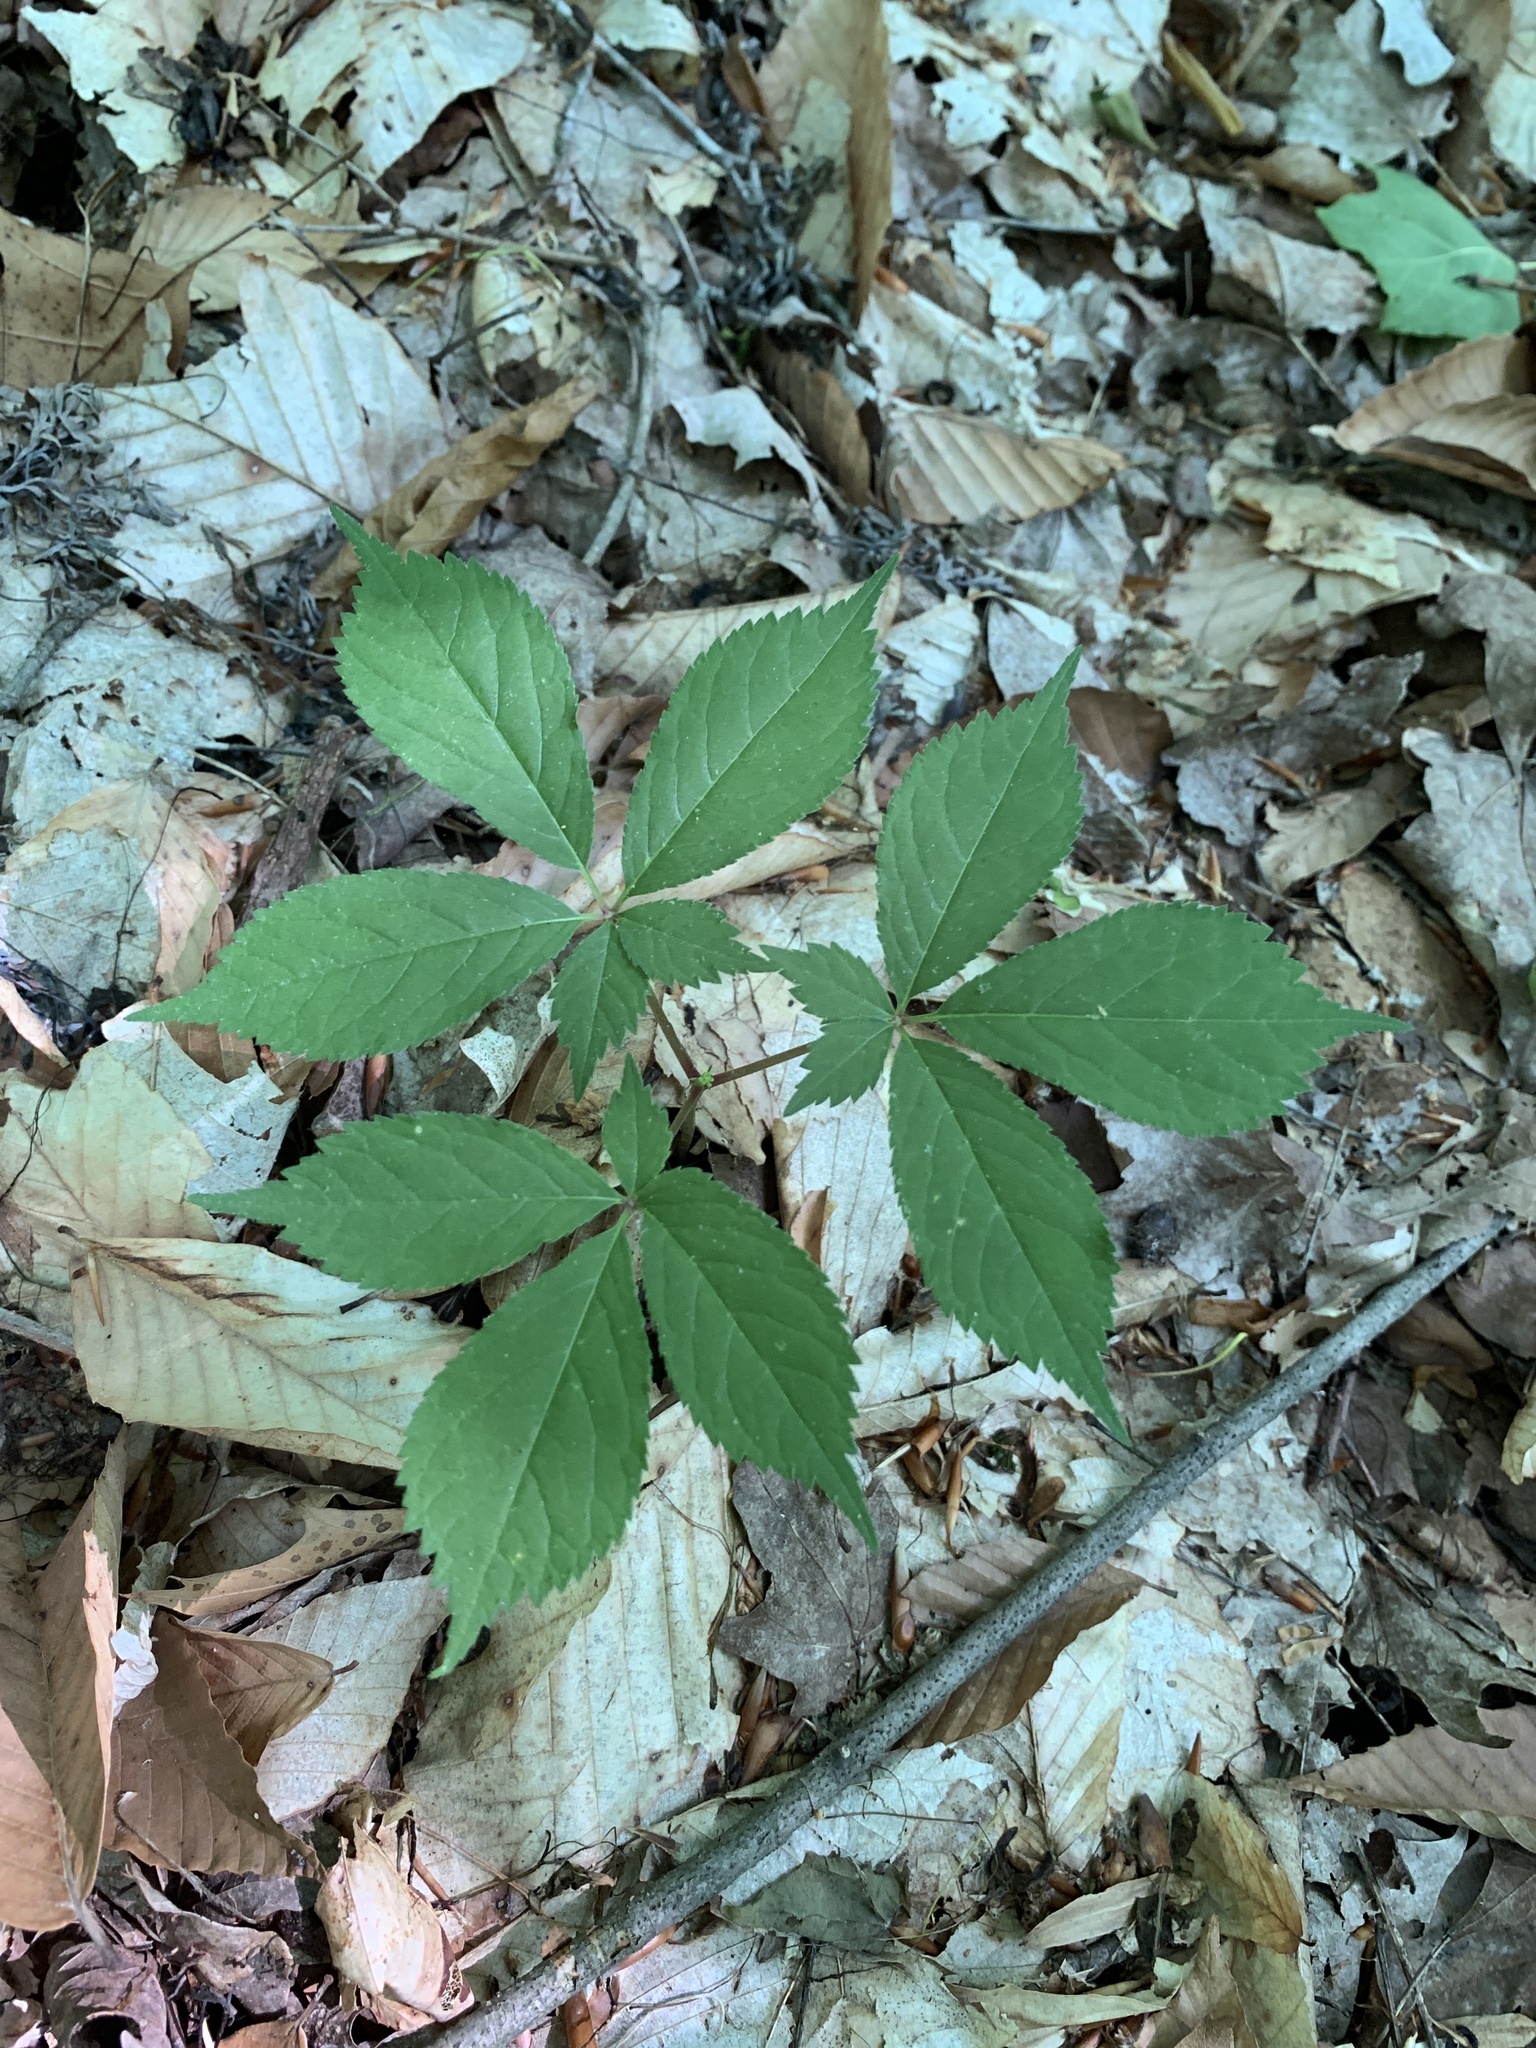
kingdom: Plantae
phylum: Tracheophyta
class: Magnoliopsida
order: Apiales
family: Araliaceae
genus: Panax
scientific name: Panax quinquefolius
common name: American ginseng
